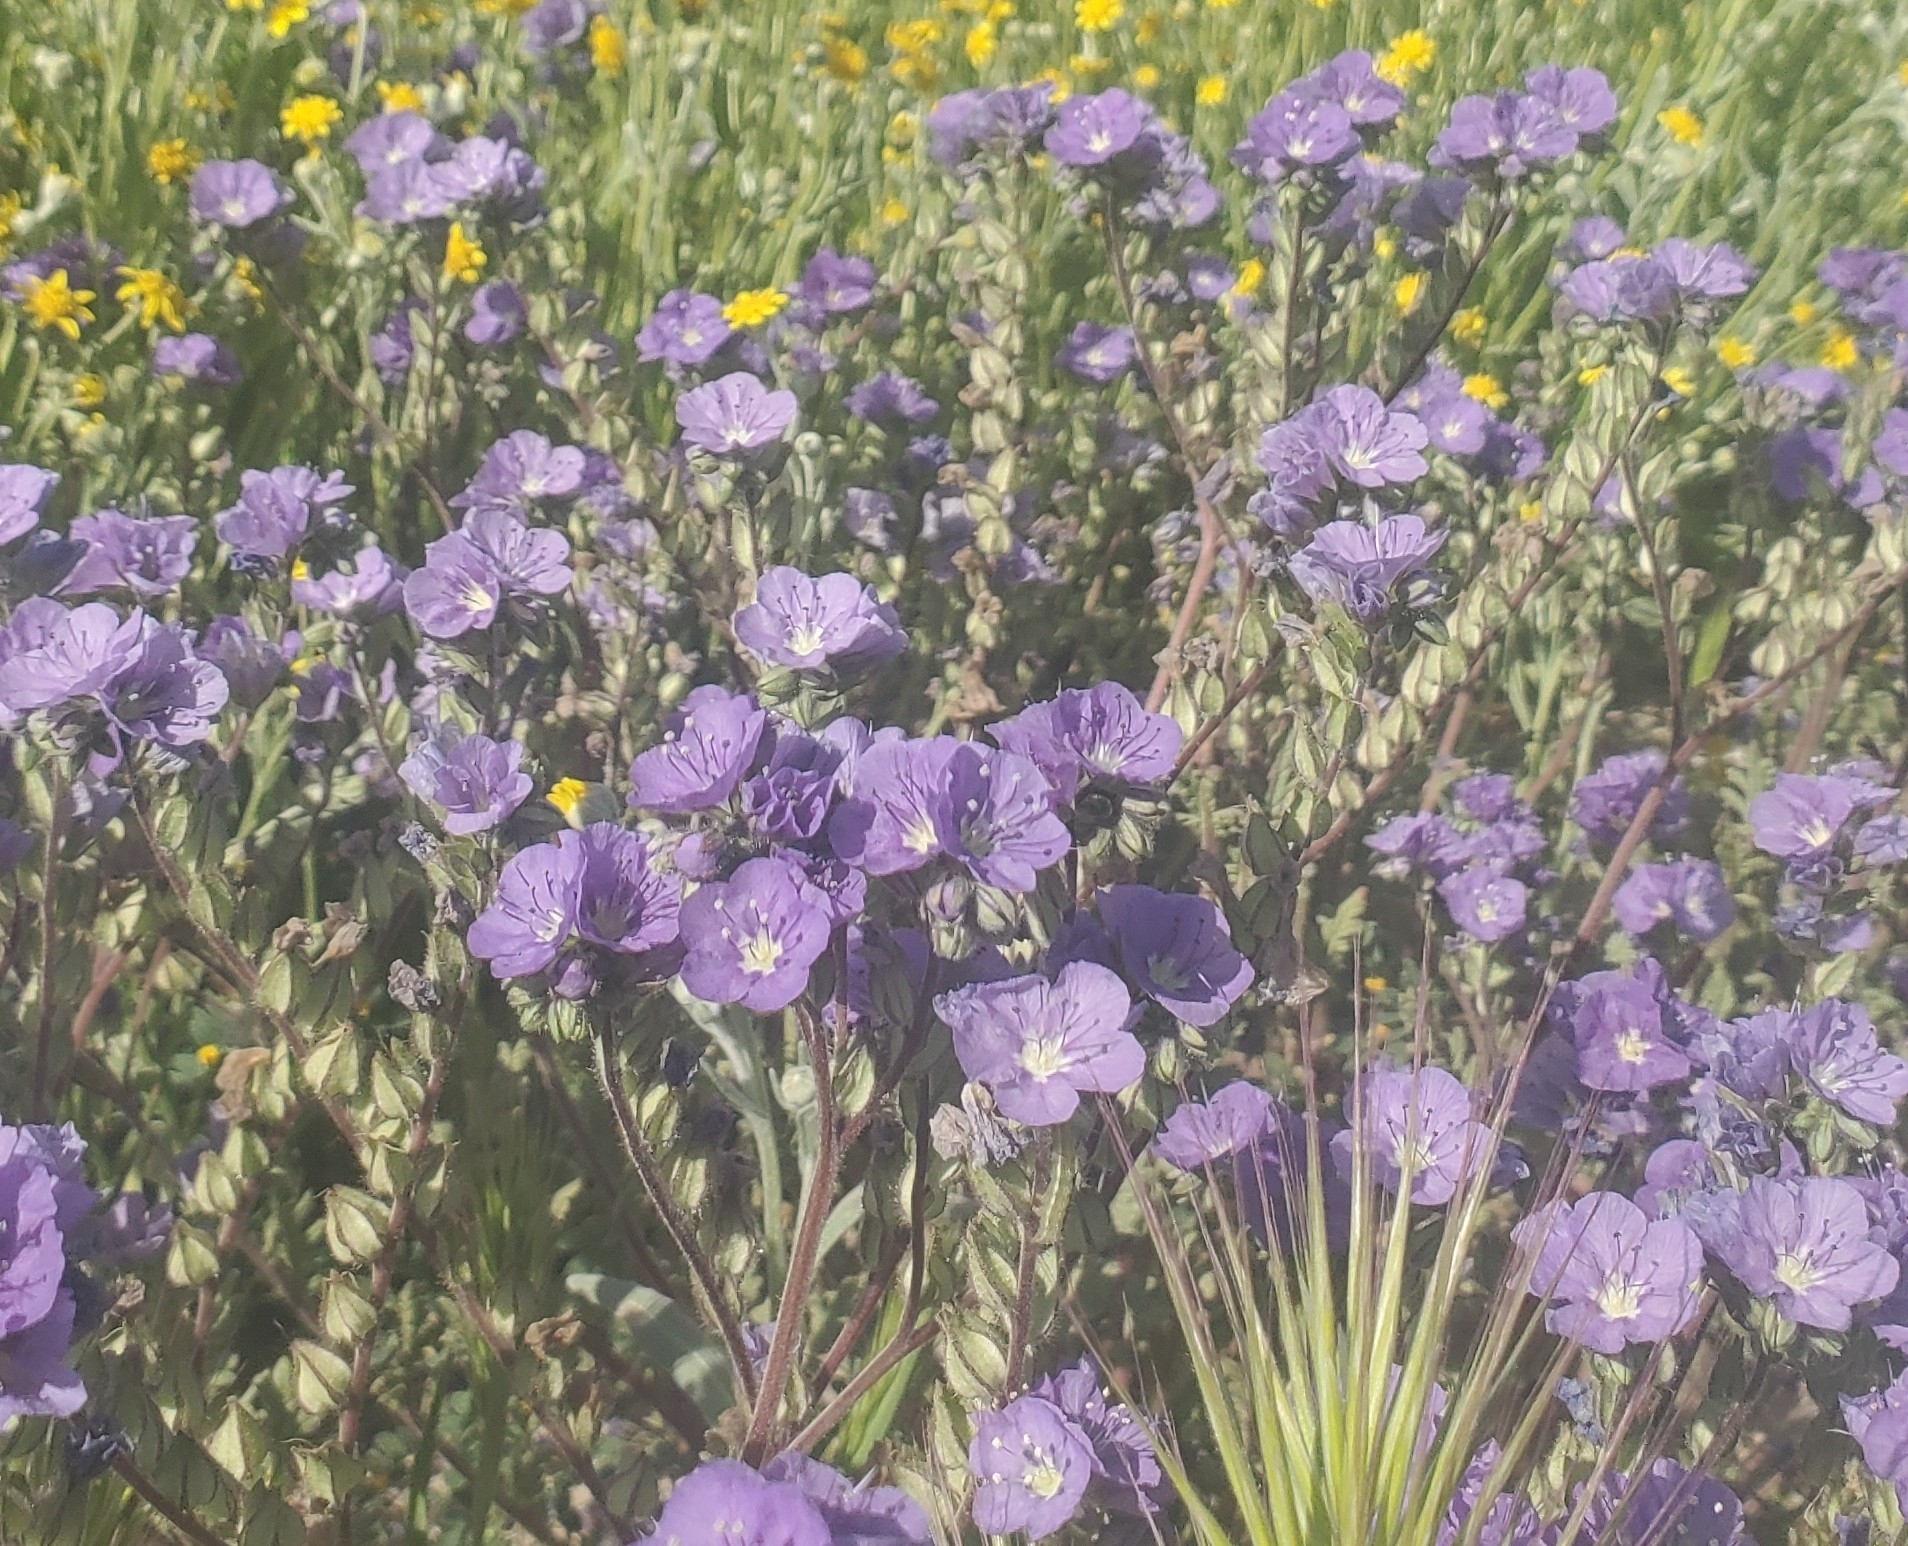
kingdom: Plantae
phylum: Tracheophyta
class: Magnoliopsida
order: Boraginales
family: Hydrophyllaceae
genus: Phacelia
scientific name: Phacelia ciliata
